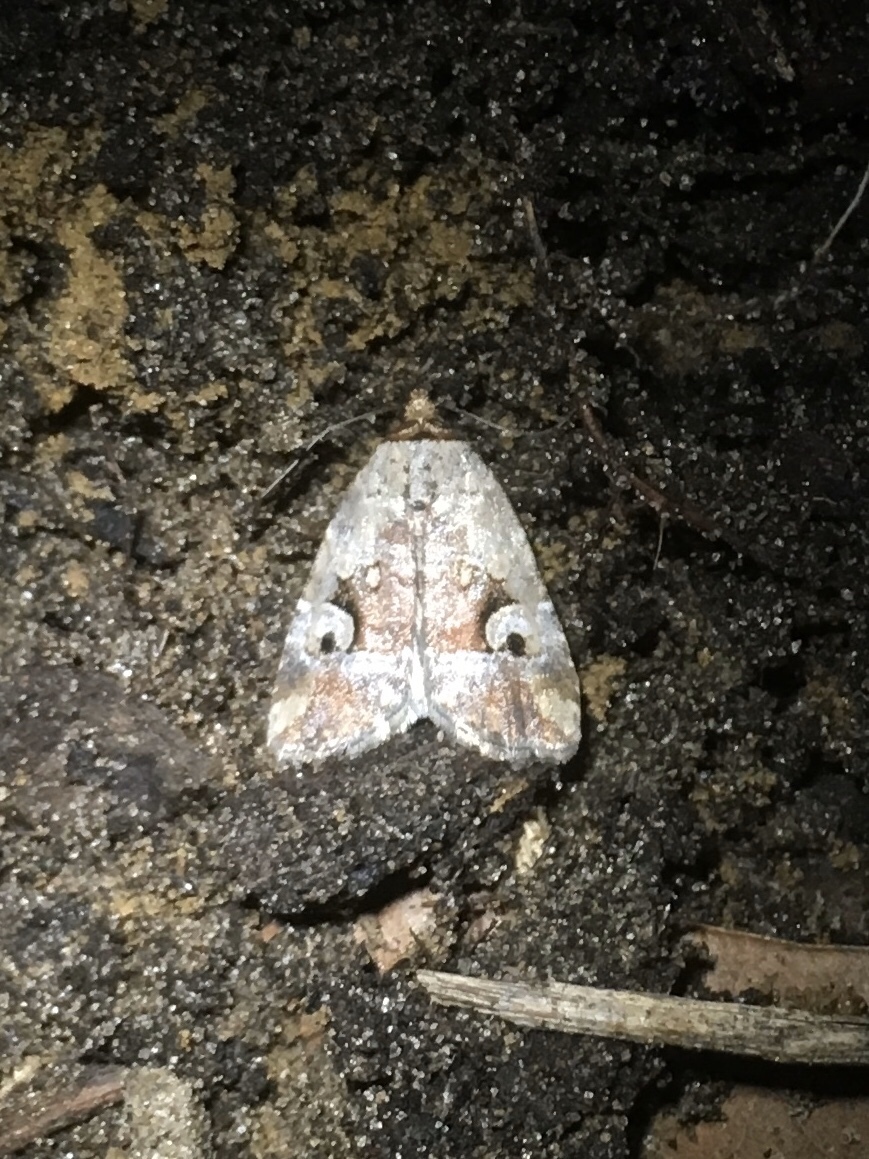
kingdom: Animalia
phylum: Arthropoda
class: Insecta
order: Lepidoptera
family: Noctuidae
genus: Elaphria
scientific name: Elaphria alapallida
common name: Pale-winged midget
